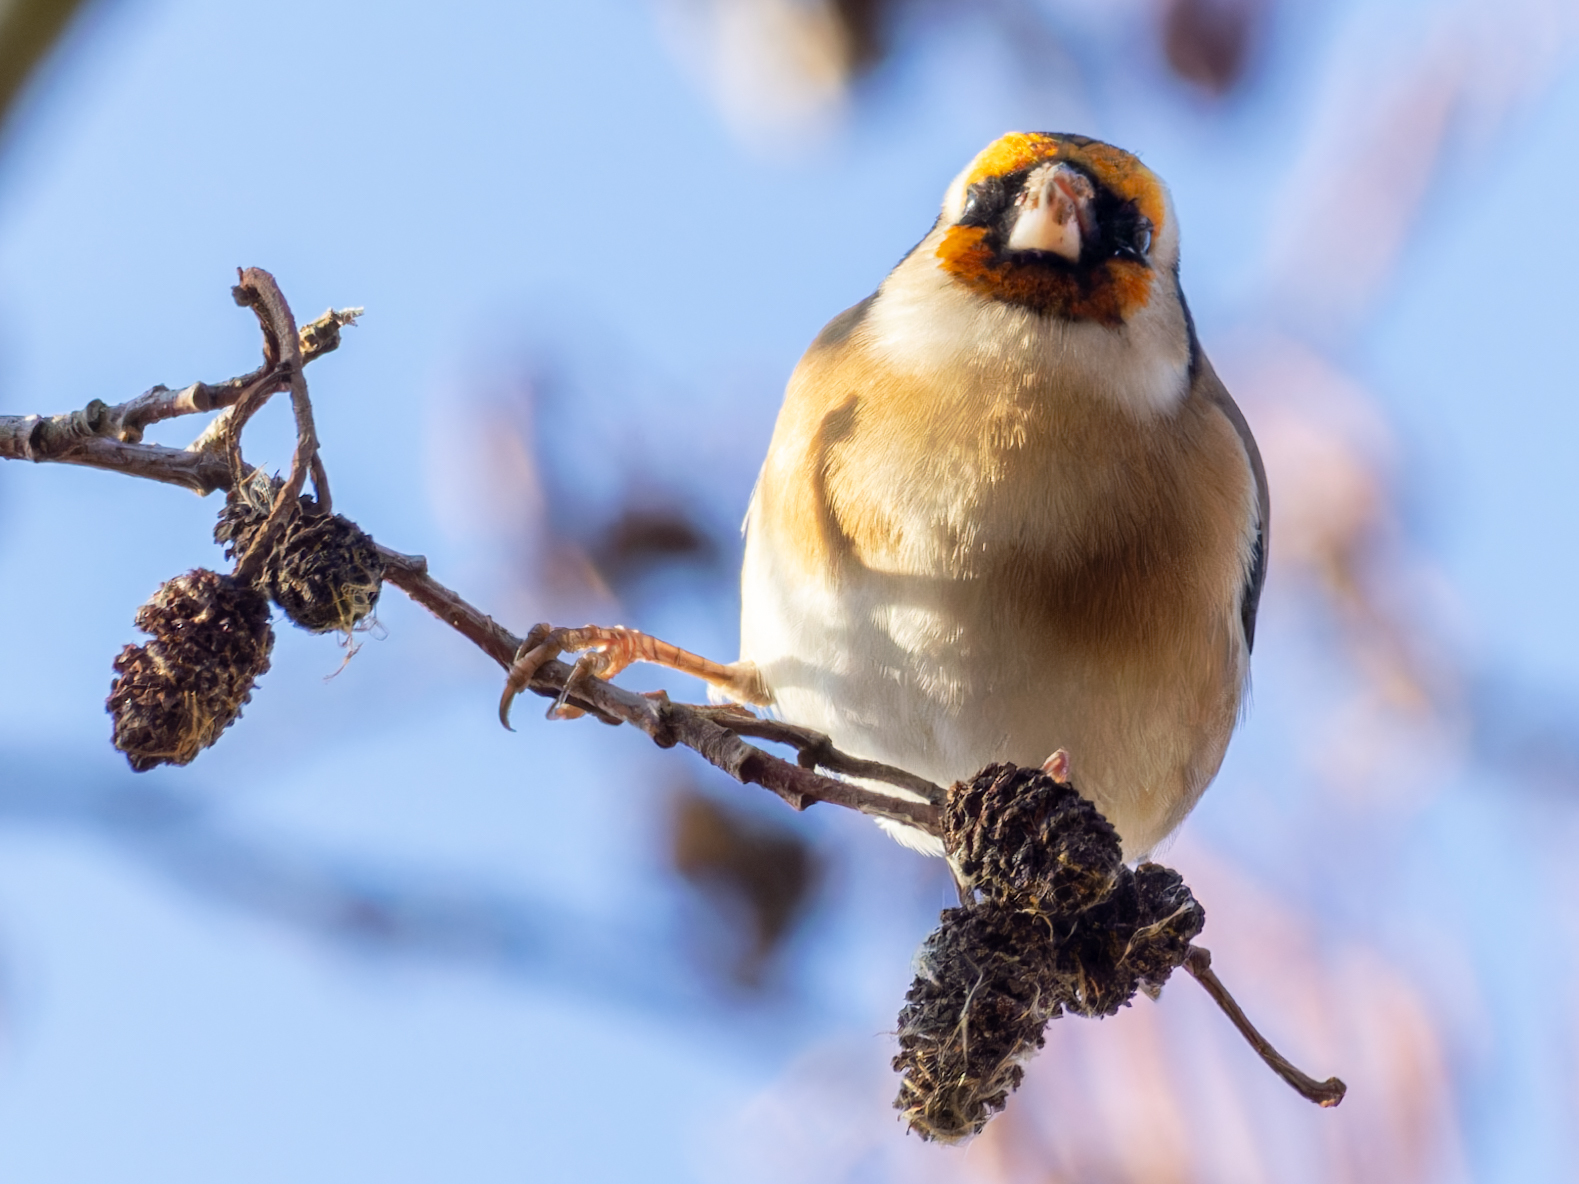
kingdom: Animalia
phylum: Chordata
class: Aves
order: Passeriformes
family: Fringillidae
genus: Carduelis
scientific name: Carduelis carduelis
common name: European goldfinch
